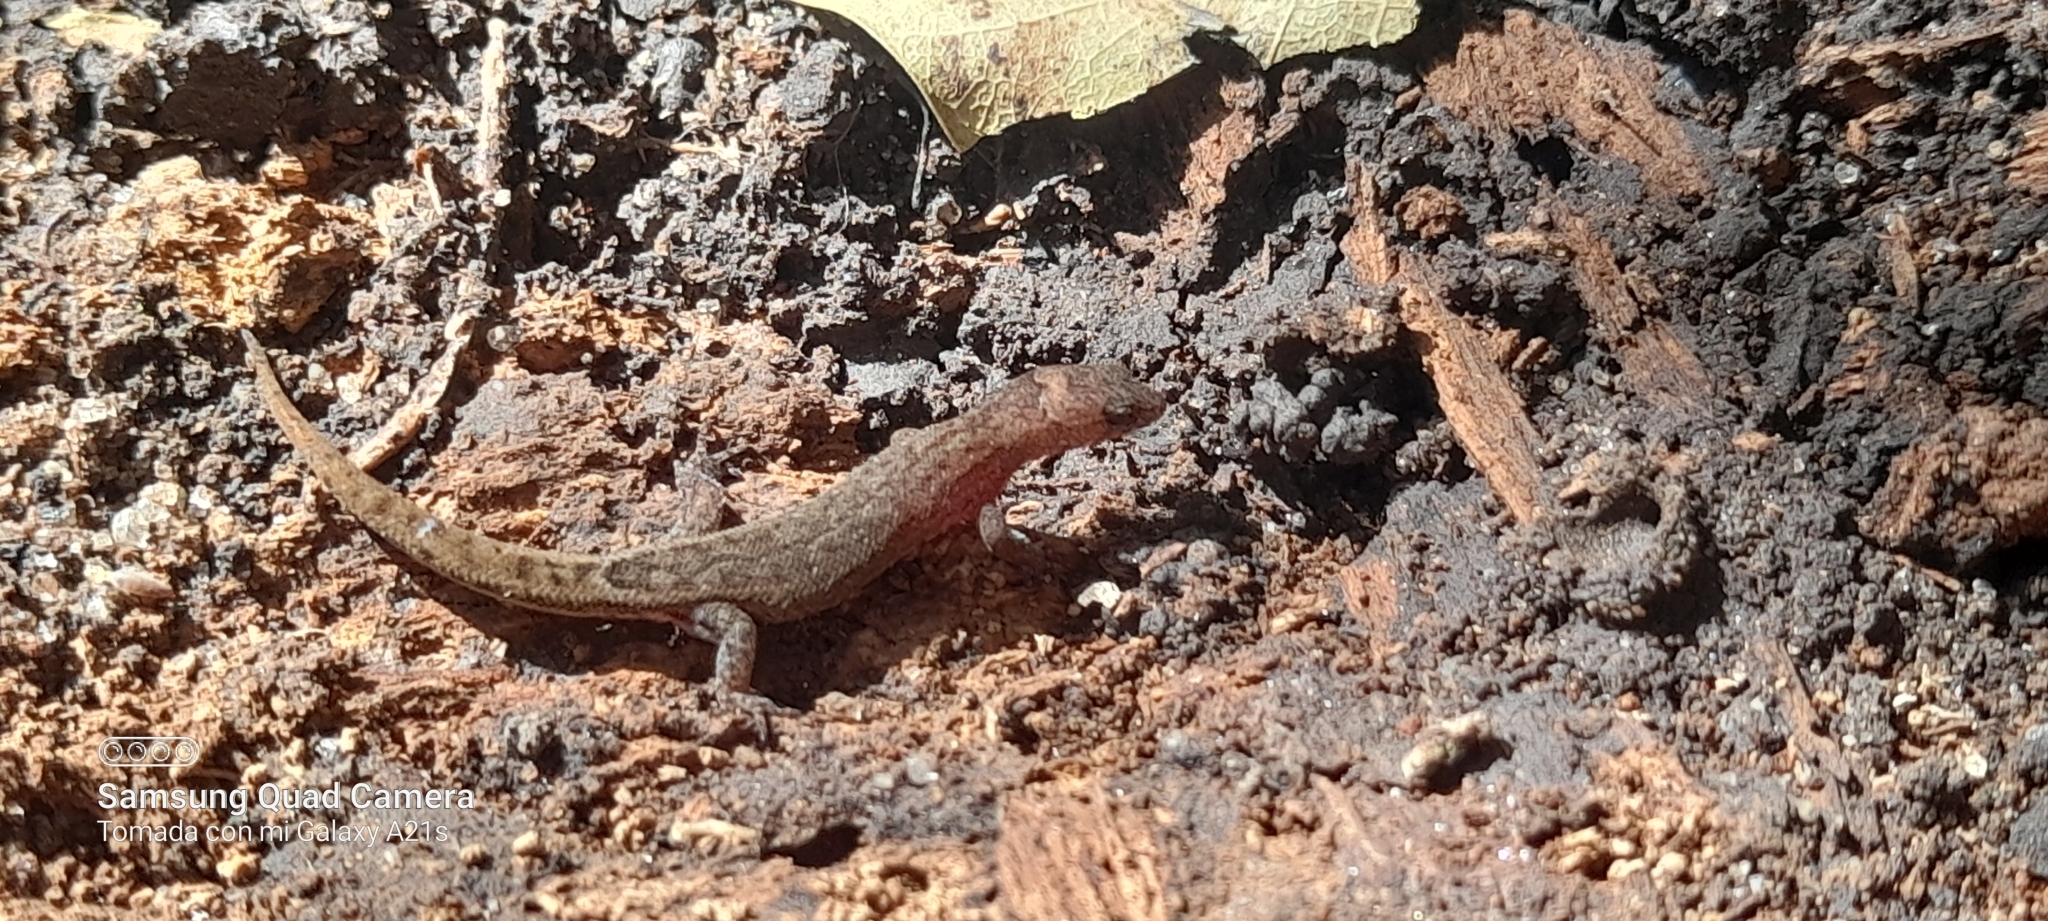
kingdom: Animalia
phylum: Chordata
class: Squamata
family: Sphaerodactylidae
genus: Lepidoblepharis
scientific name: Lepidoblepharis sanctaemartae
